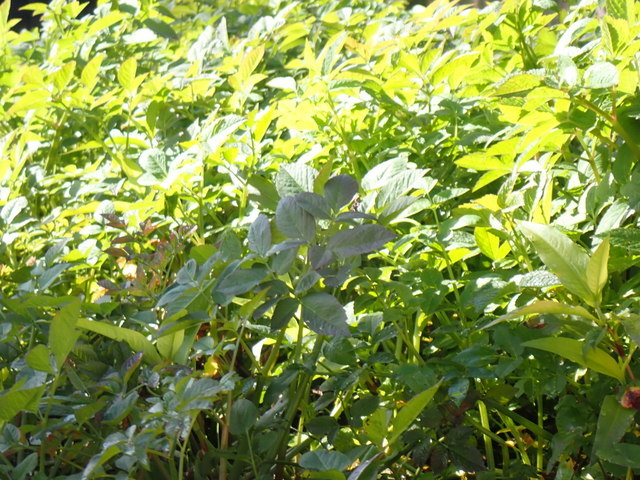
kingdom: Plantae
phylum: Tracheophyta
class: Magnoliopsida
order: Apiales
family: Apiaceae
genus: Cicuta
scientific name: Cicuta maculata
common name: Spotted cowbane
